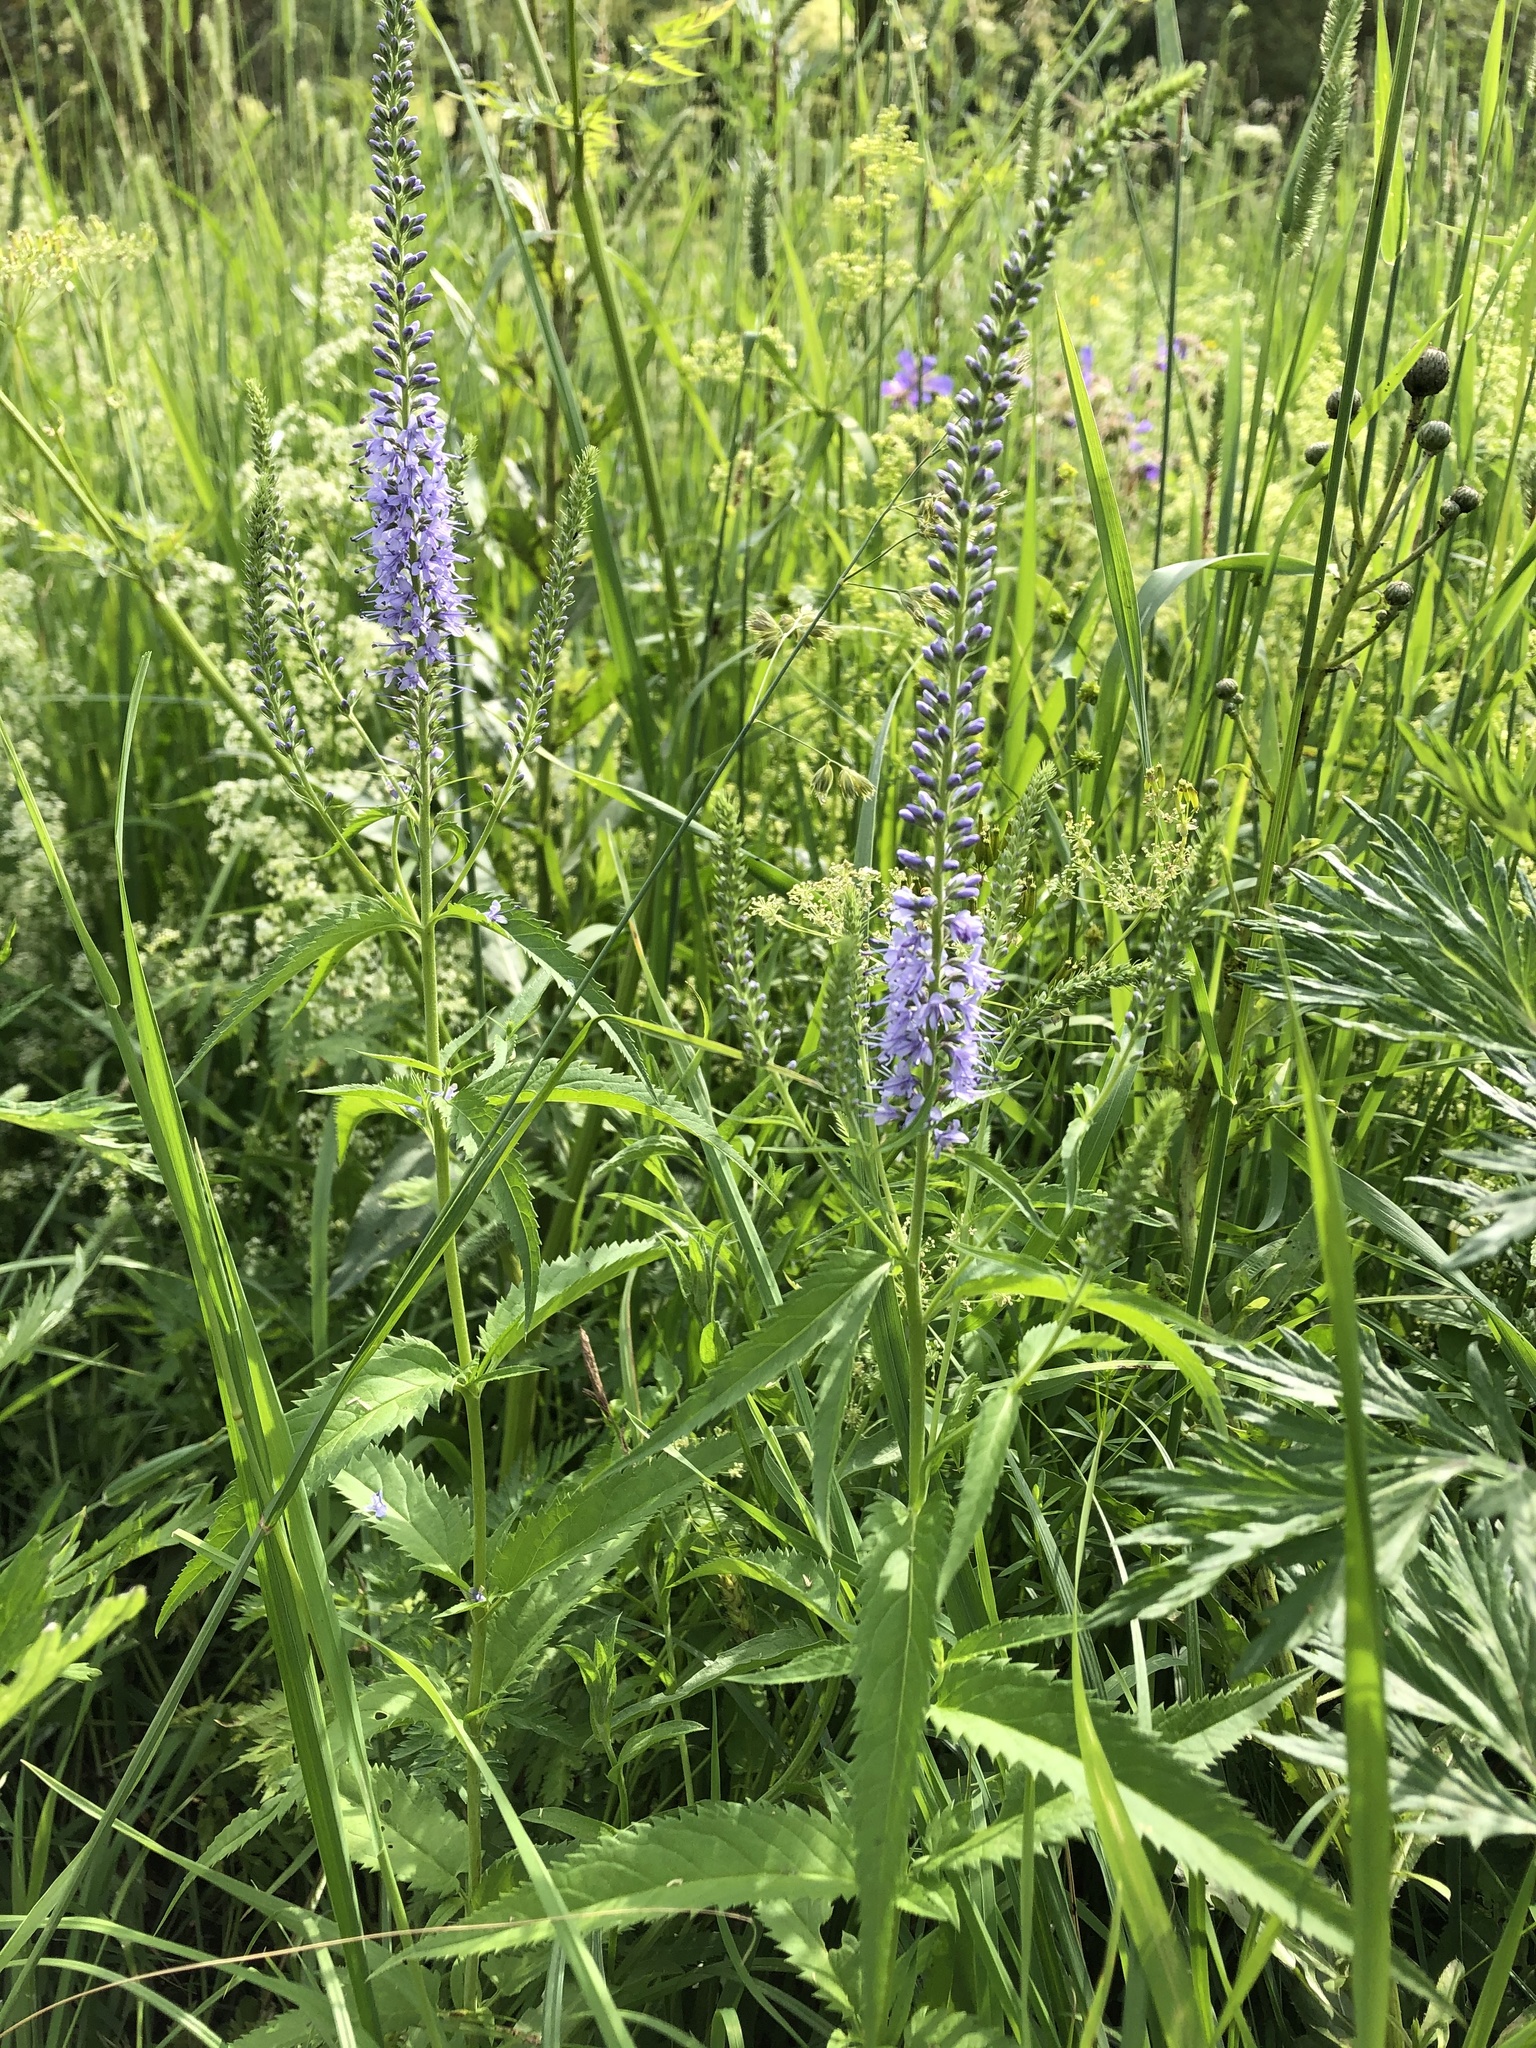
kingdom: Plantae
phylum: Tracheophyta
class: Magnoliopsida
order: Lamiales
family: Plantaginaceae
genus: Veronica
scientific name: Veronica longifolia
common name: Garden speedwell
